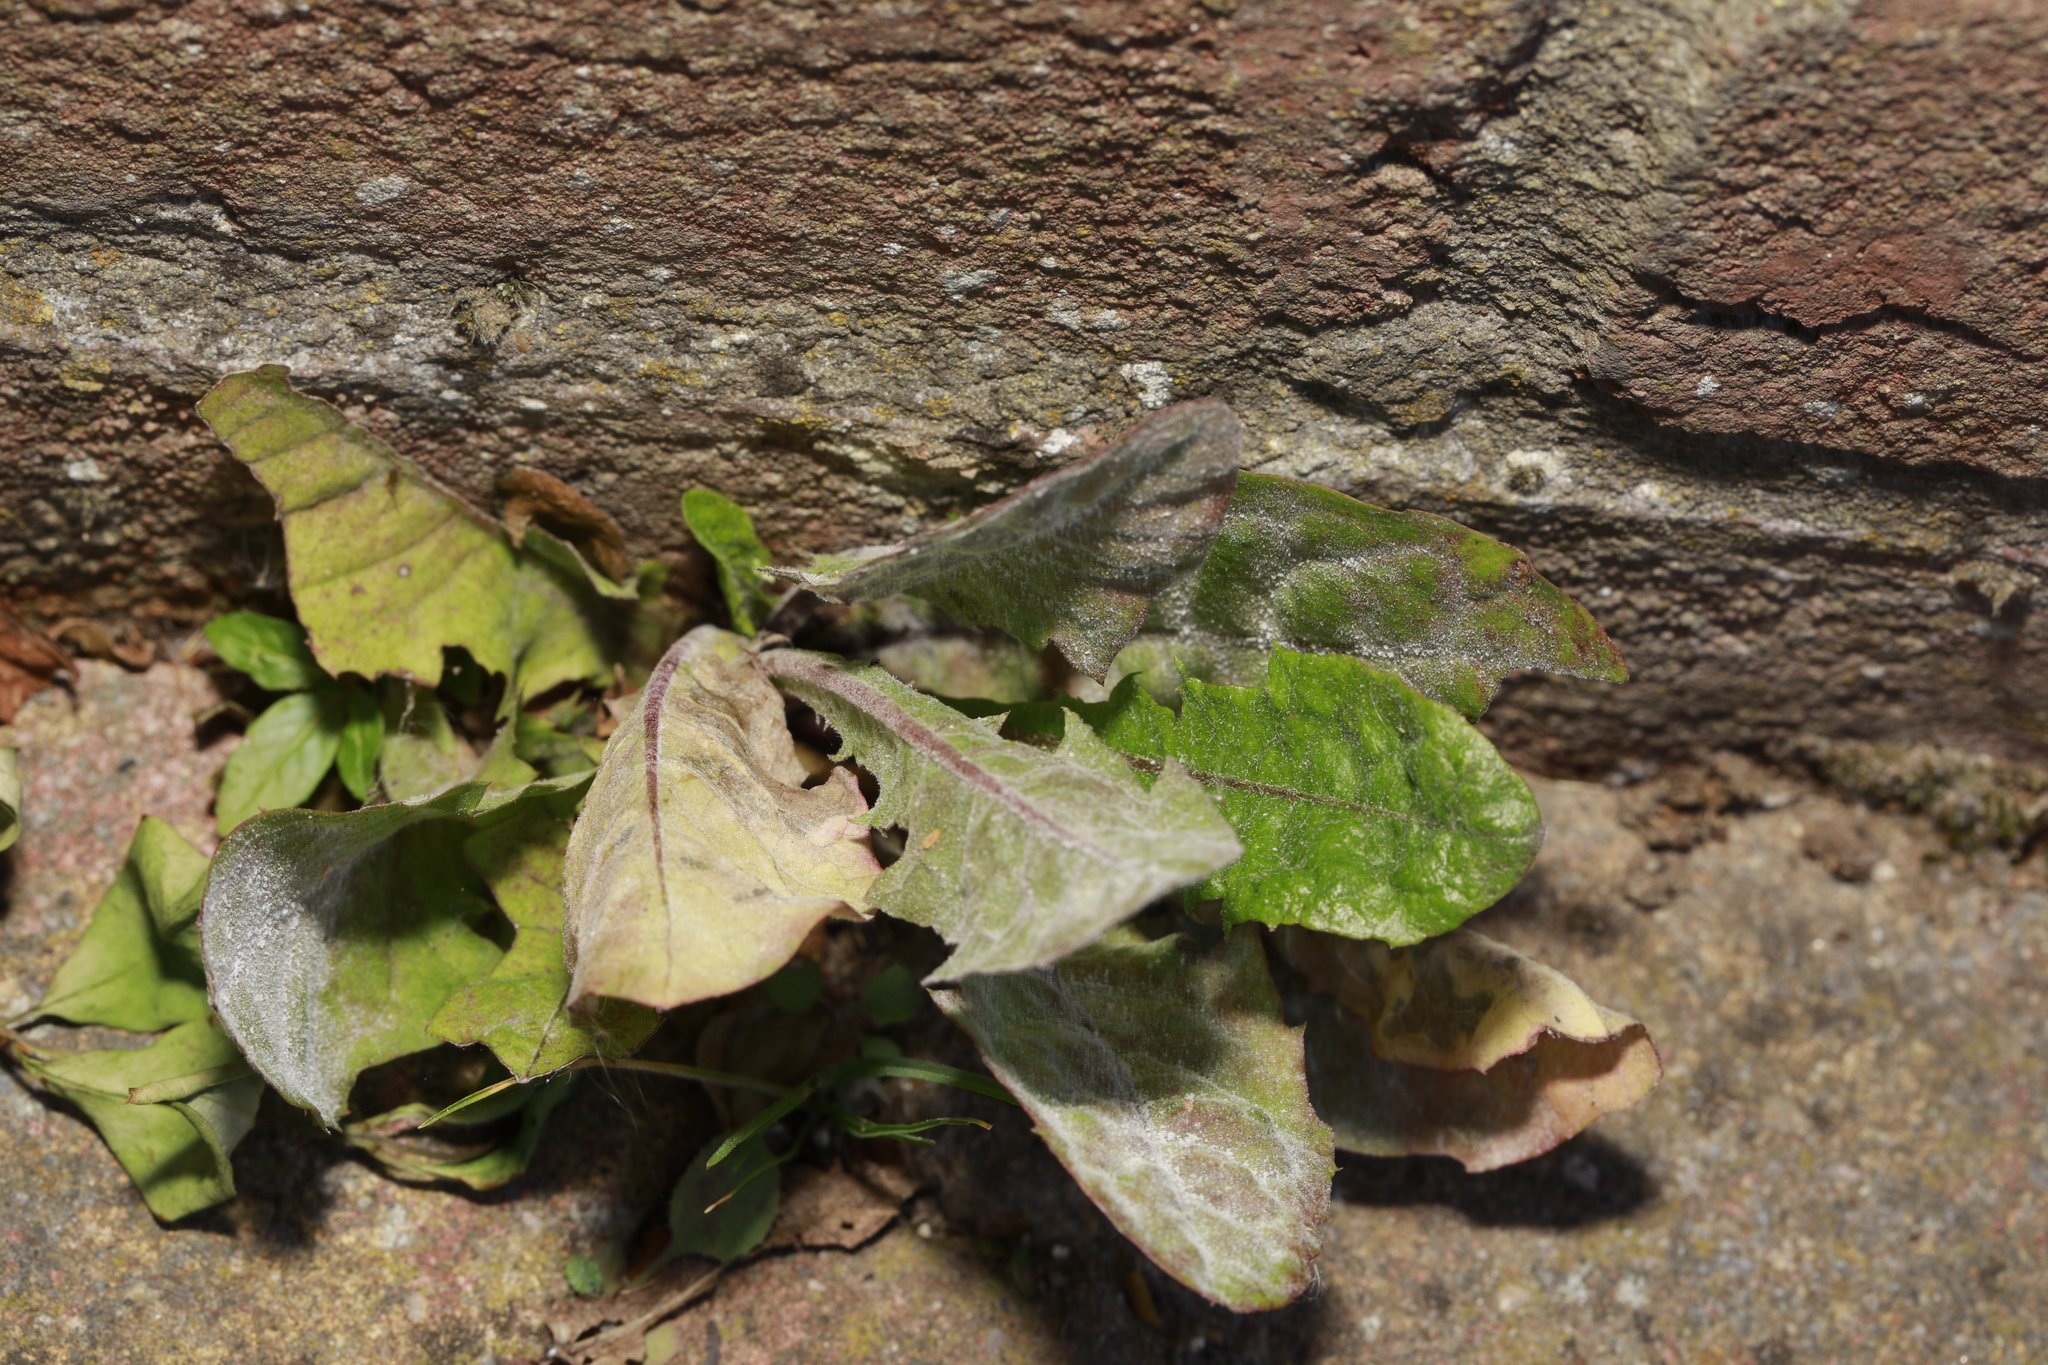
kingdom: Fungi
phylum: Ascomycota
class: Leotiomycetes
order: Helotiales
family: Erysiphaceae
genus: Podosphaera
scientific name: Podosphaera erigerontis-canadensis
